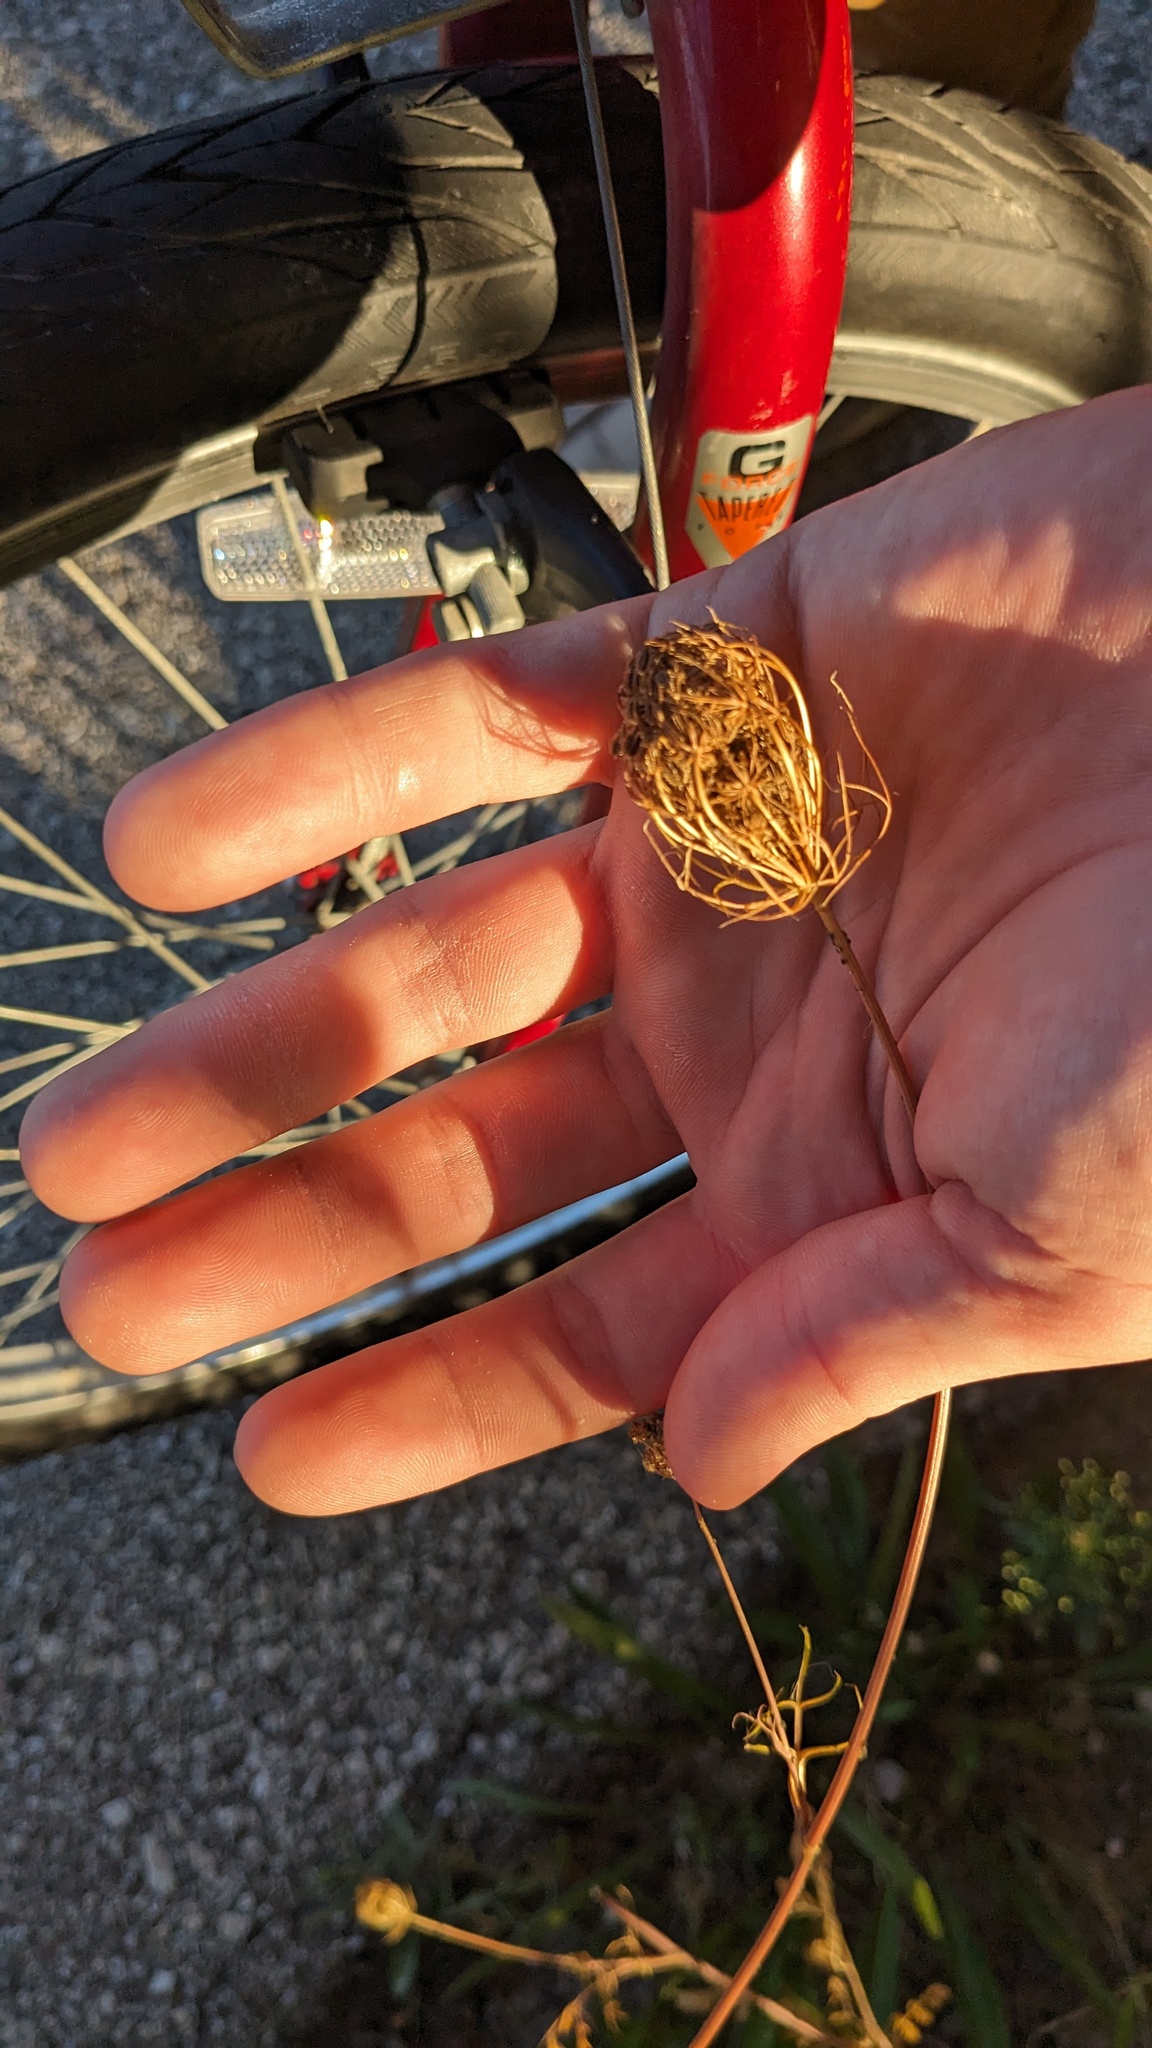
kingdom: Plantae
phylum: Tracheophyta
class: Magnoliopsida
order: Apiales
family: Apiaceae
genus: Daucus
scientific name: Daucus carota
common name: Wild carrot
